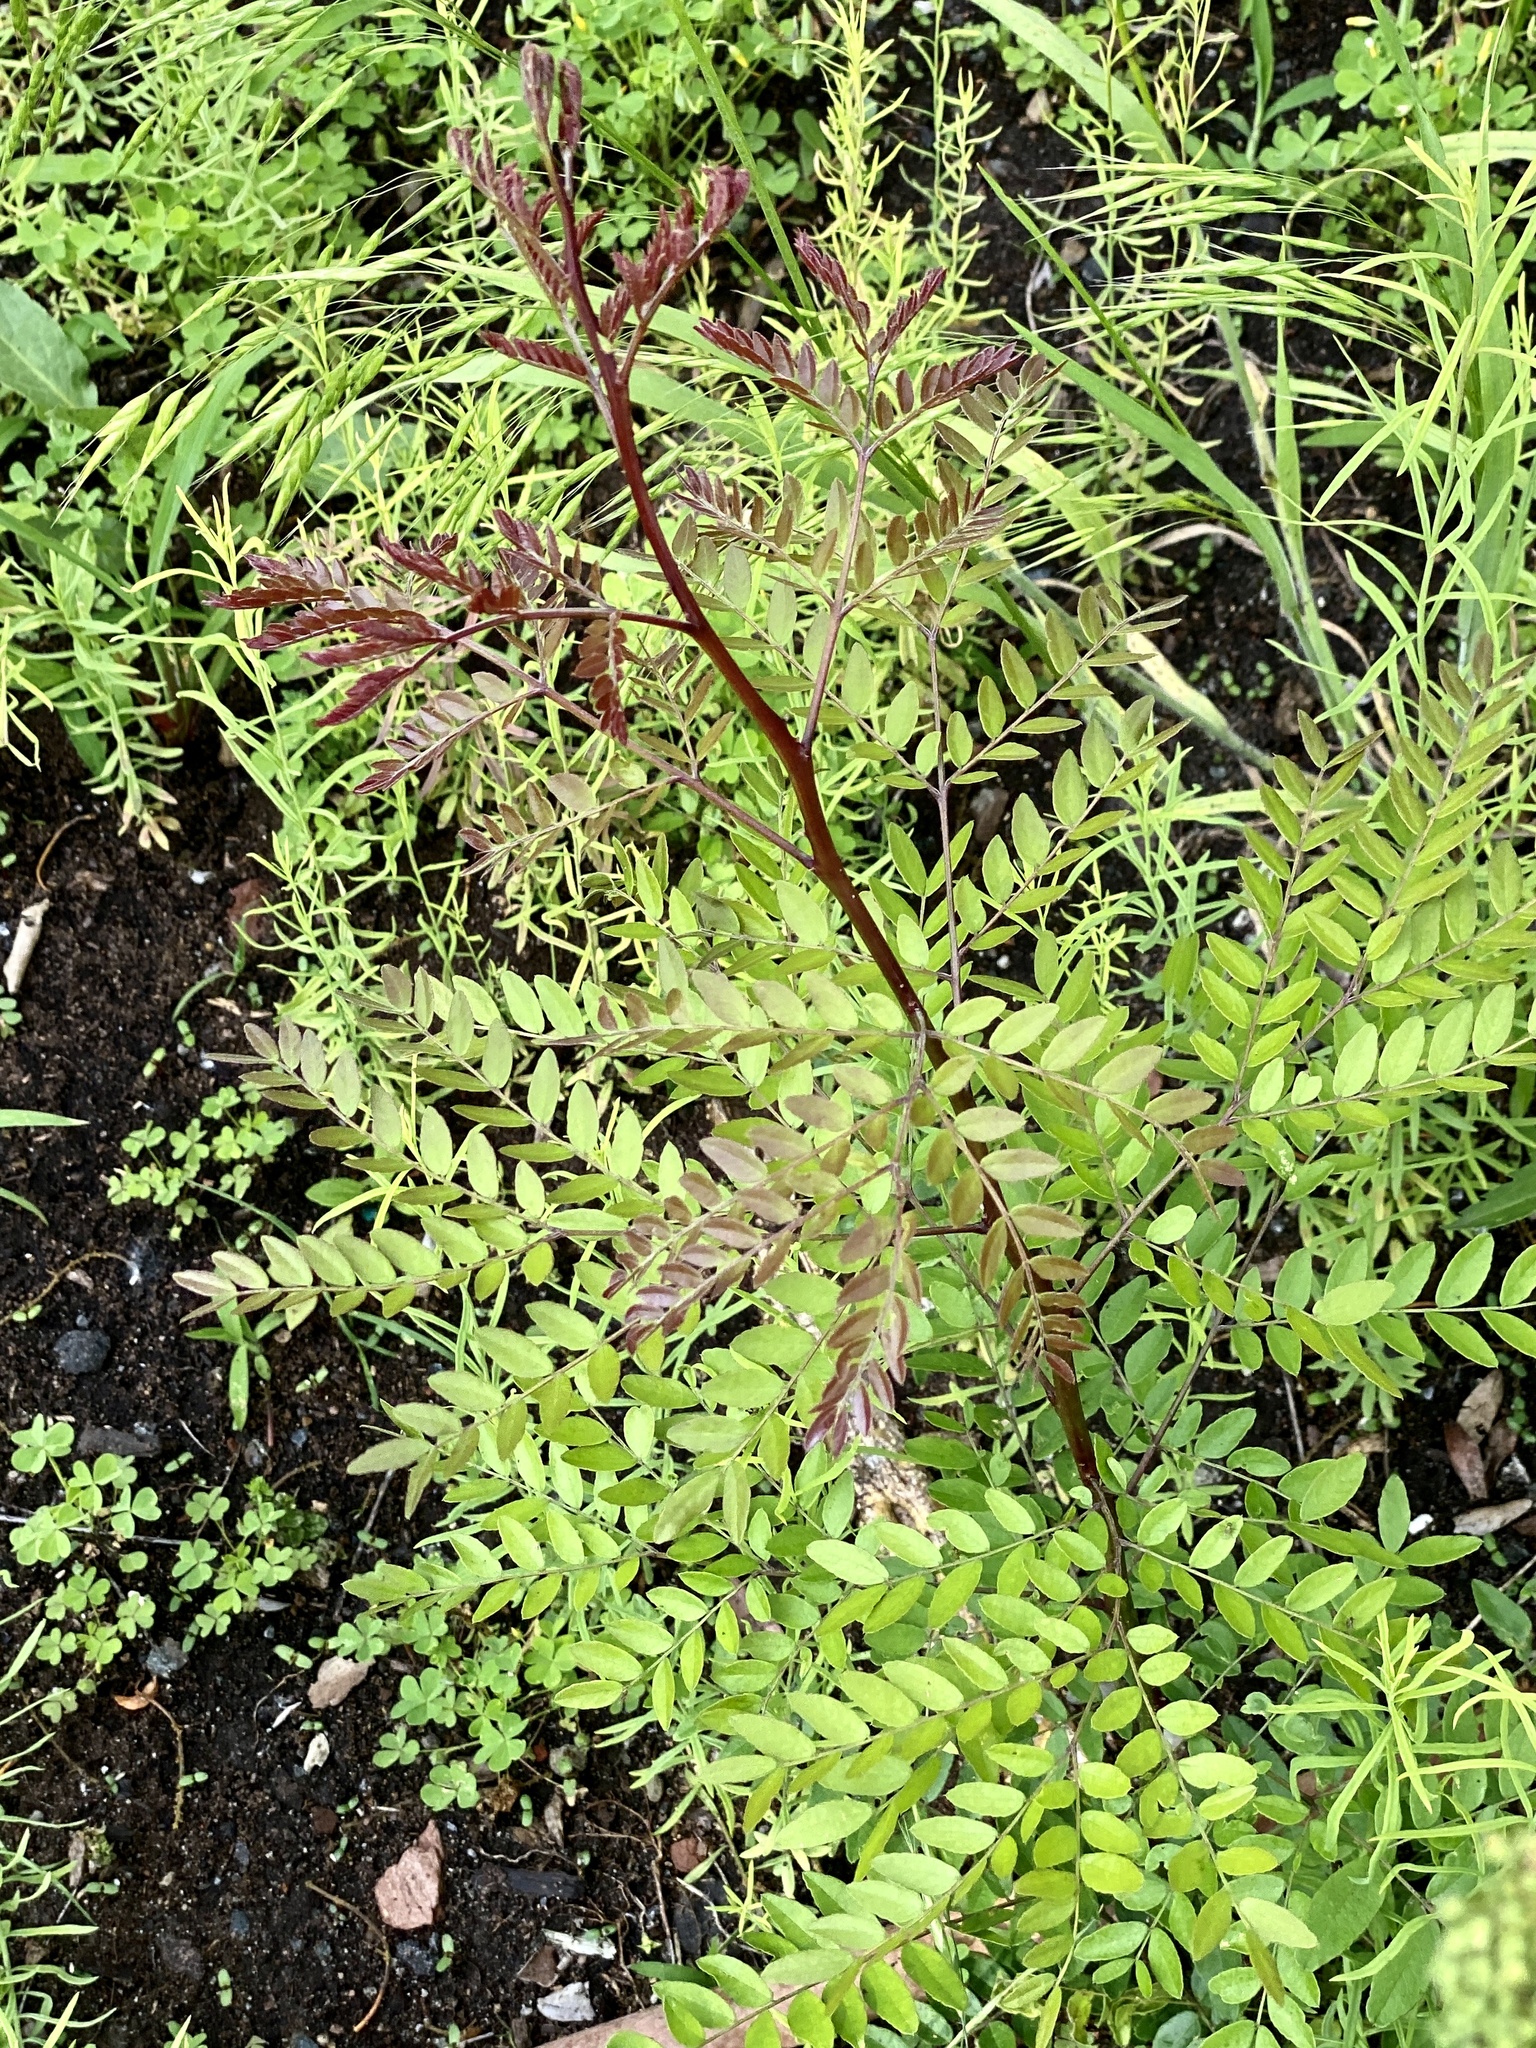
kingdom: Plantae
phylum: Tracheophyta
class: Magnoliopsida
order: Fabales
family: Fabaceae
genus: Gleditsia
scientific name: Gleditsia triacanthos
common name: Common honeylocust
